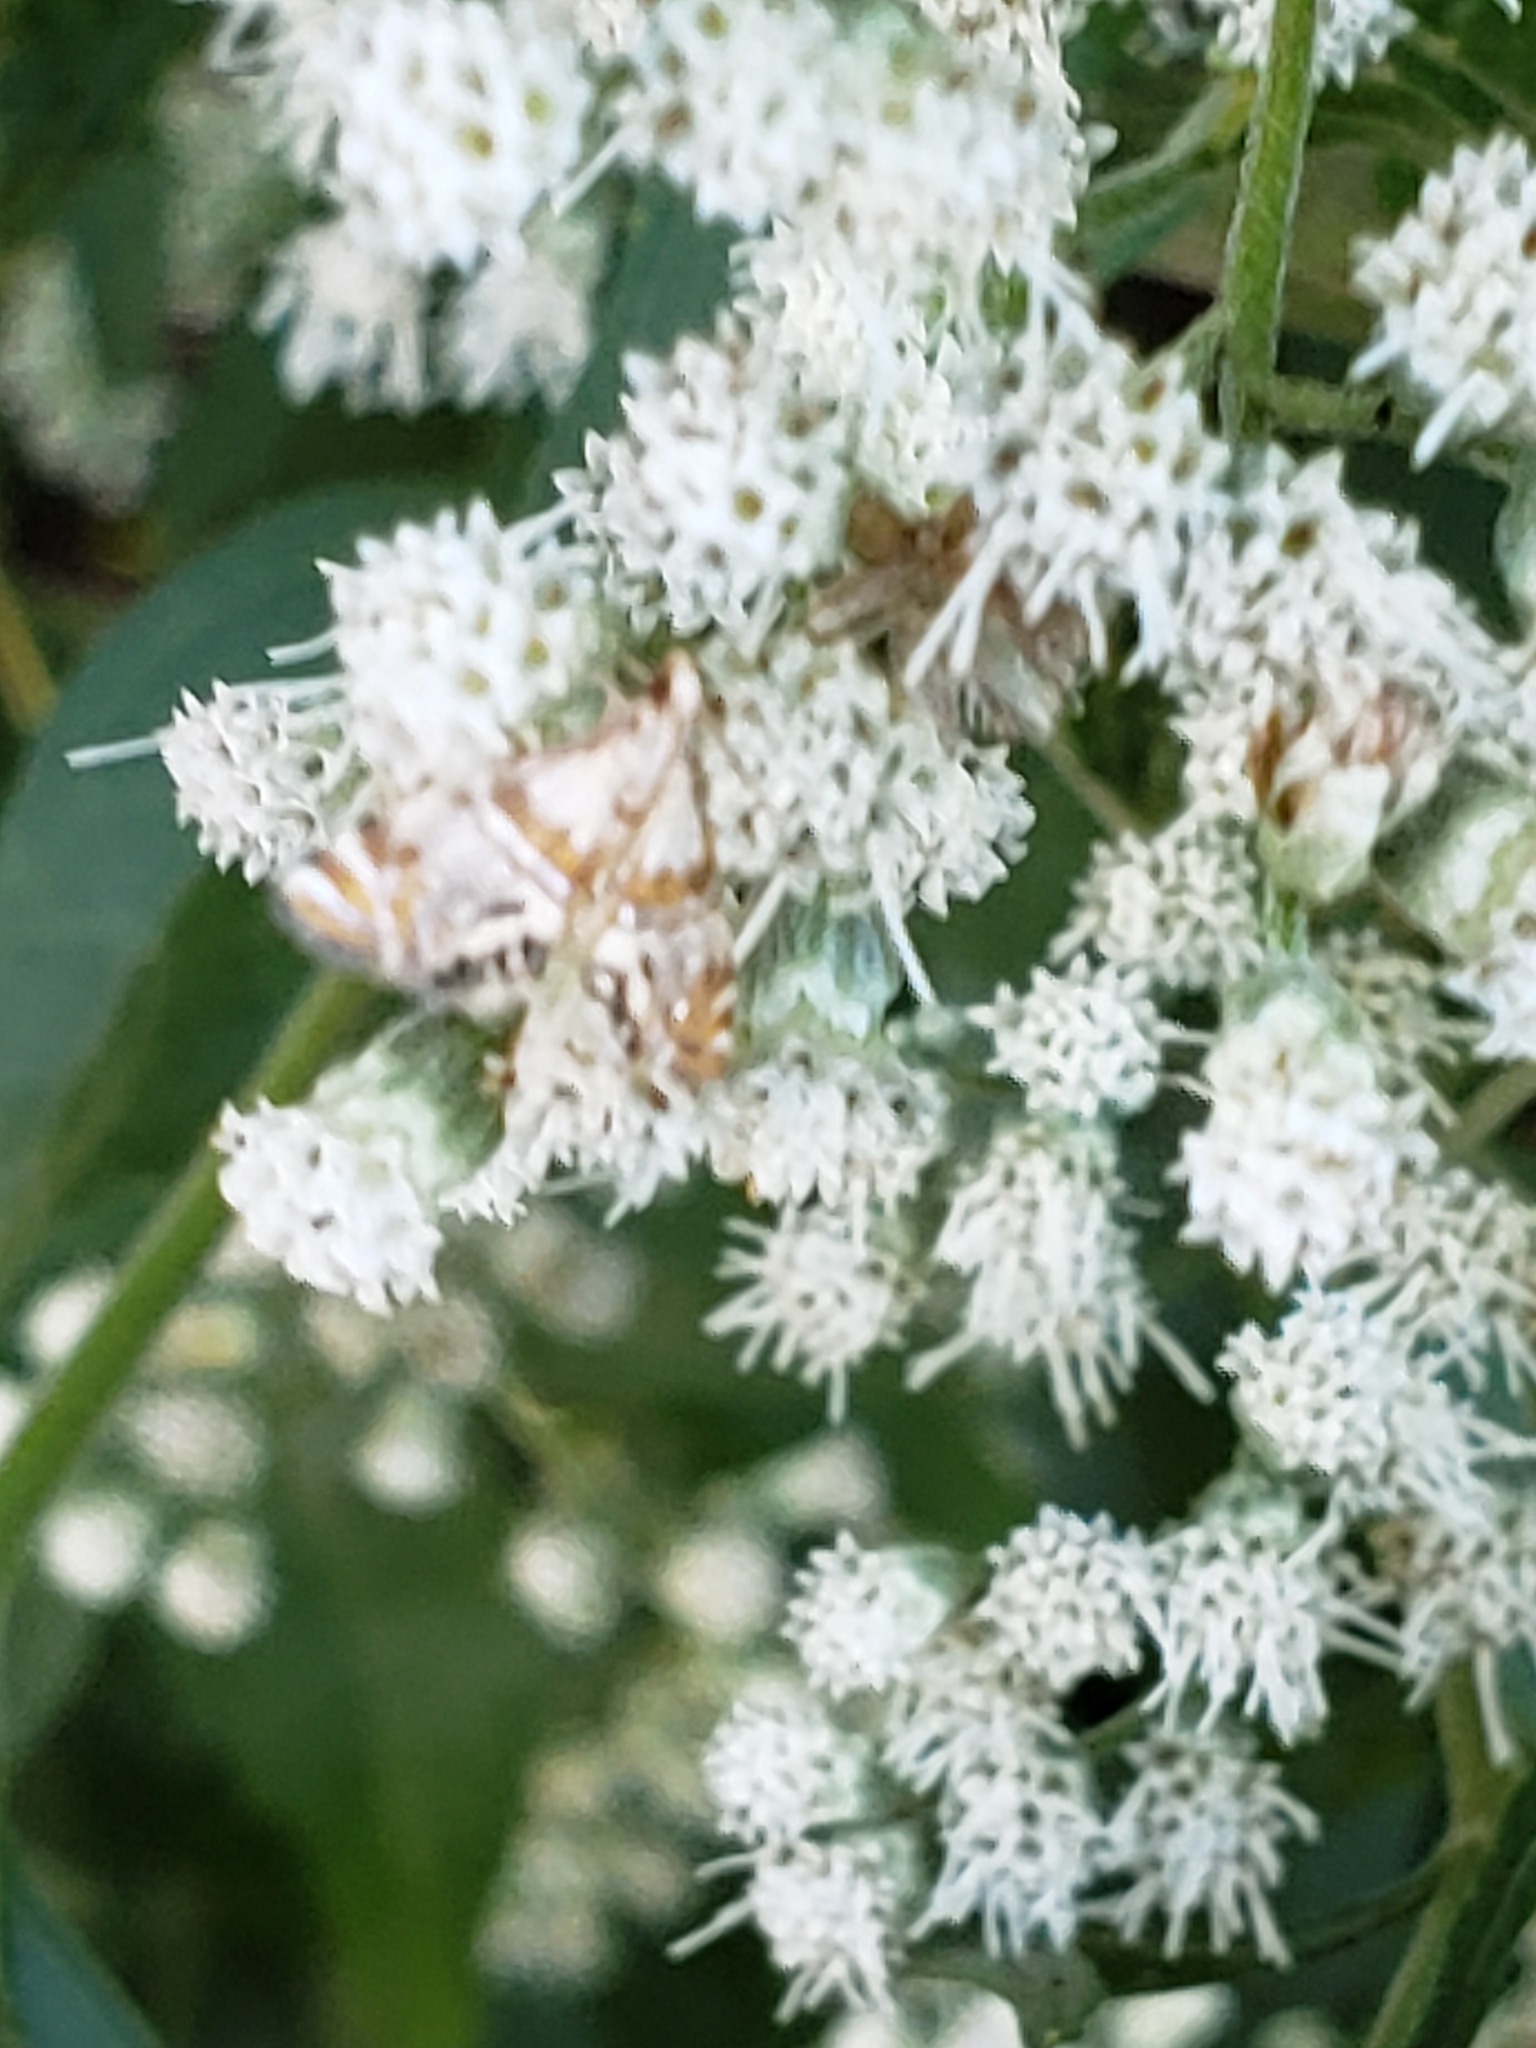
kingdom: Animalia
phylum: Arthropoda
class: Insecta
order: Lepidoptera
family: Crambidae
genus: Petrophila
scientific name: Petrophila bifascialis
